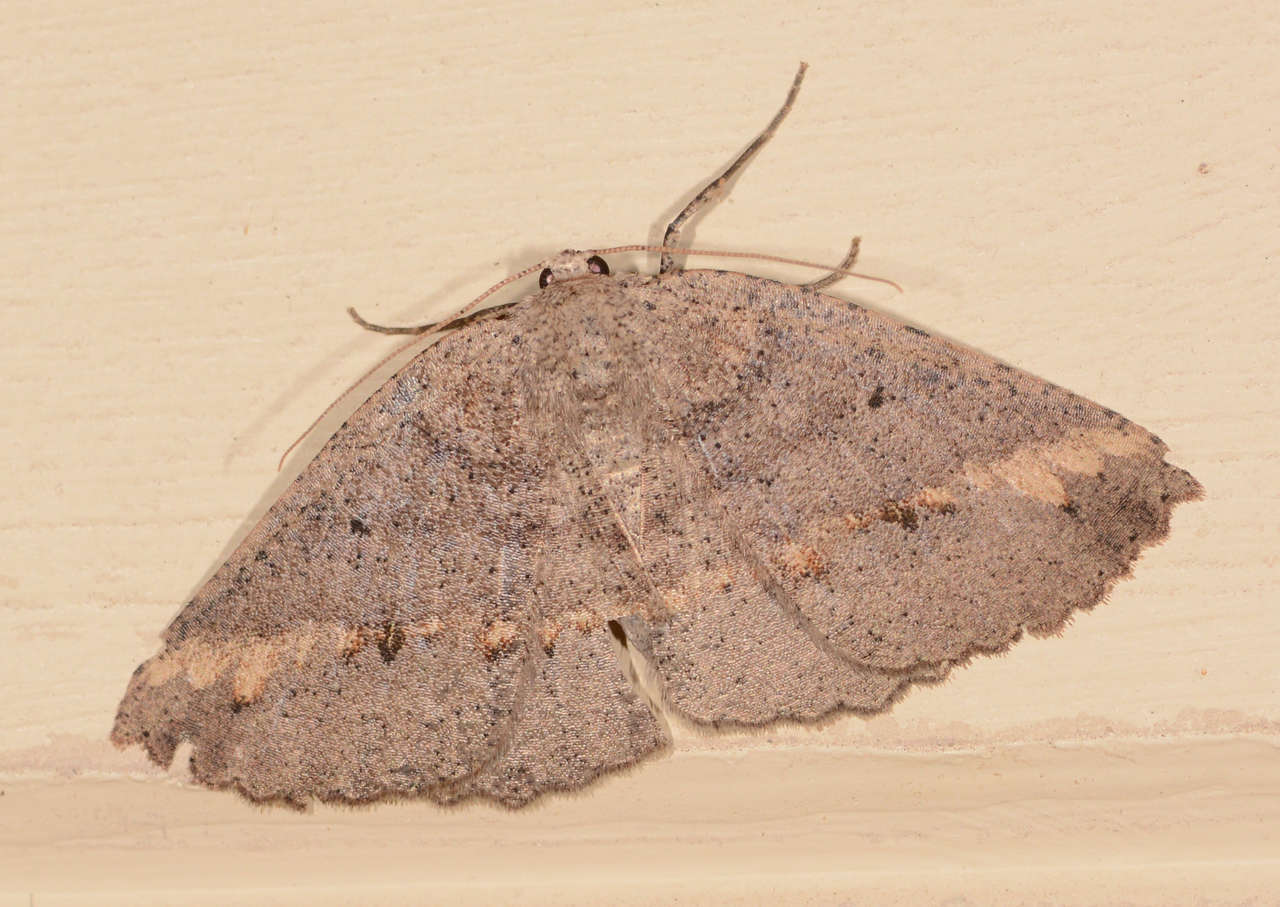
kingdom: Animalia
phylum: Arthropoda
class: Insecta
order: Lepidoptera
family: Geometridae
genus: Xenomusa
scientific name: Xenomusa
